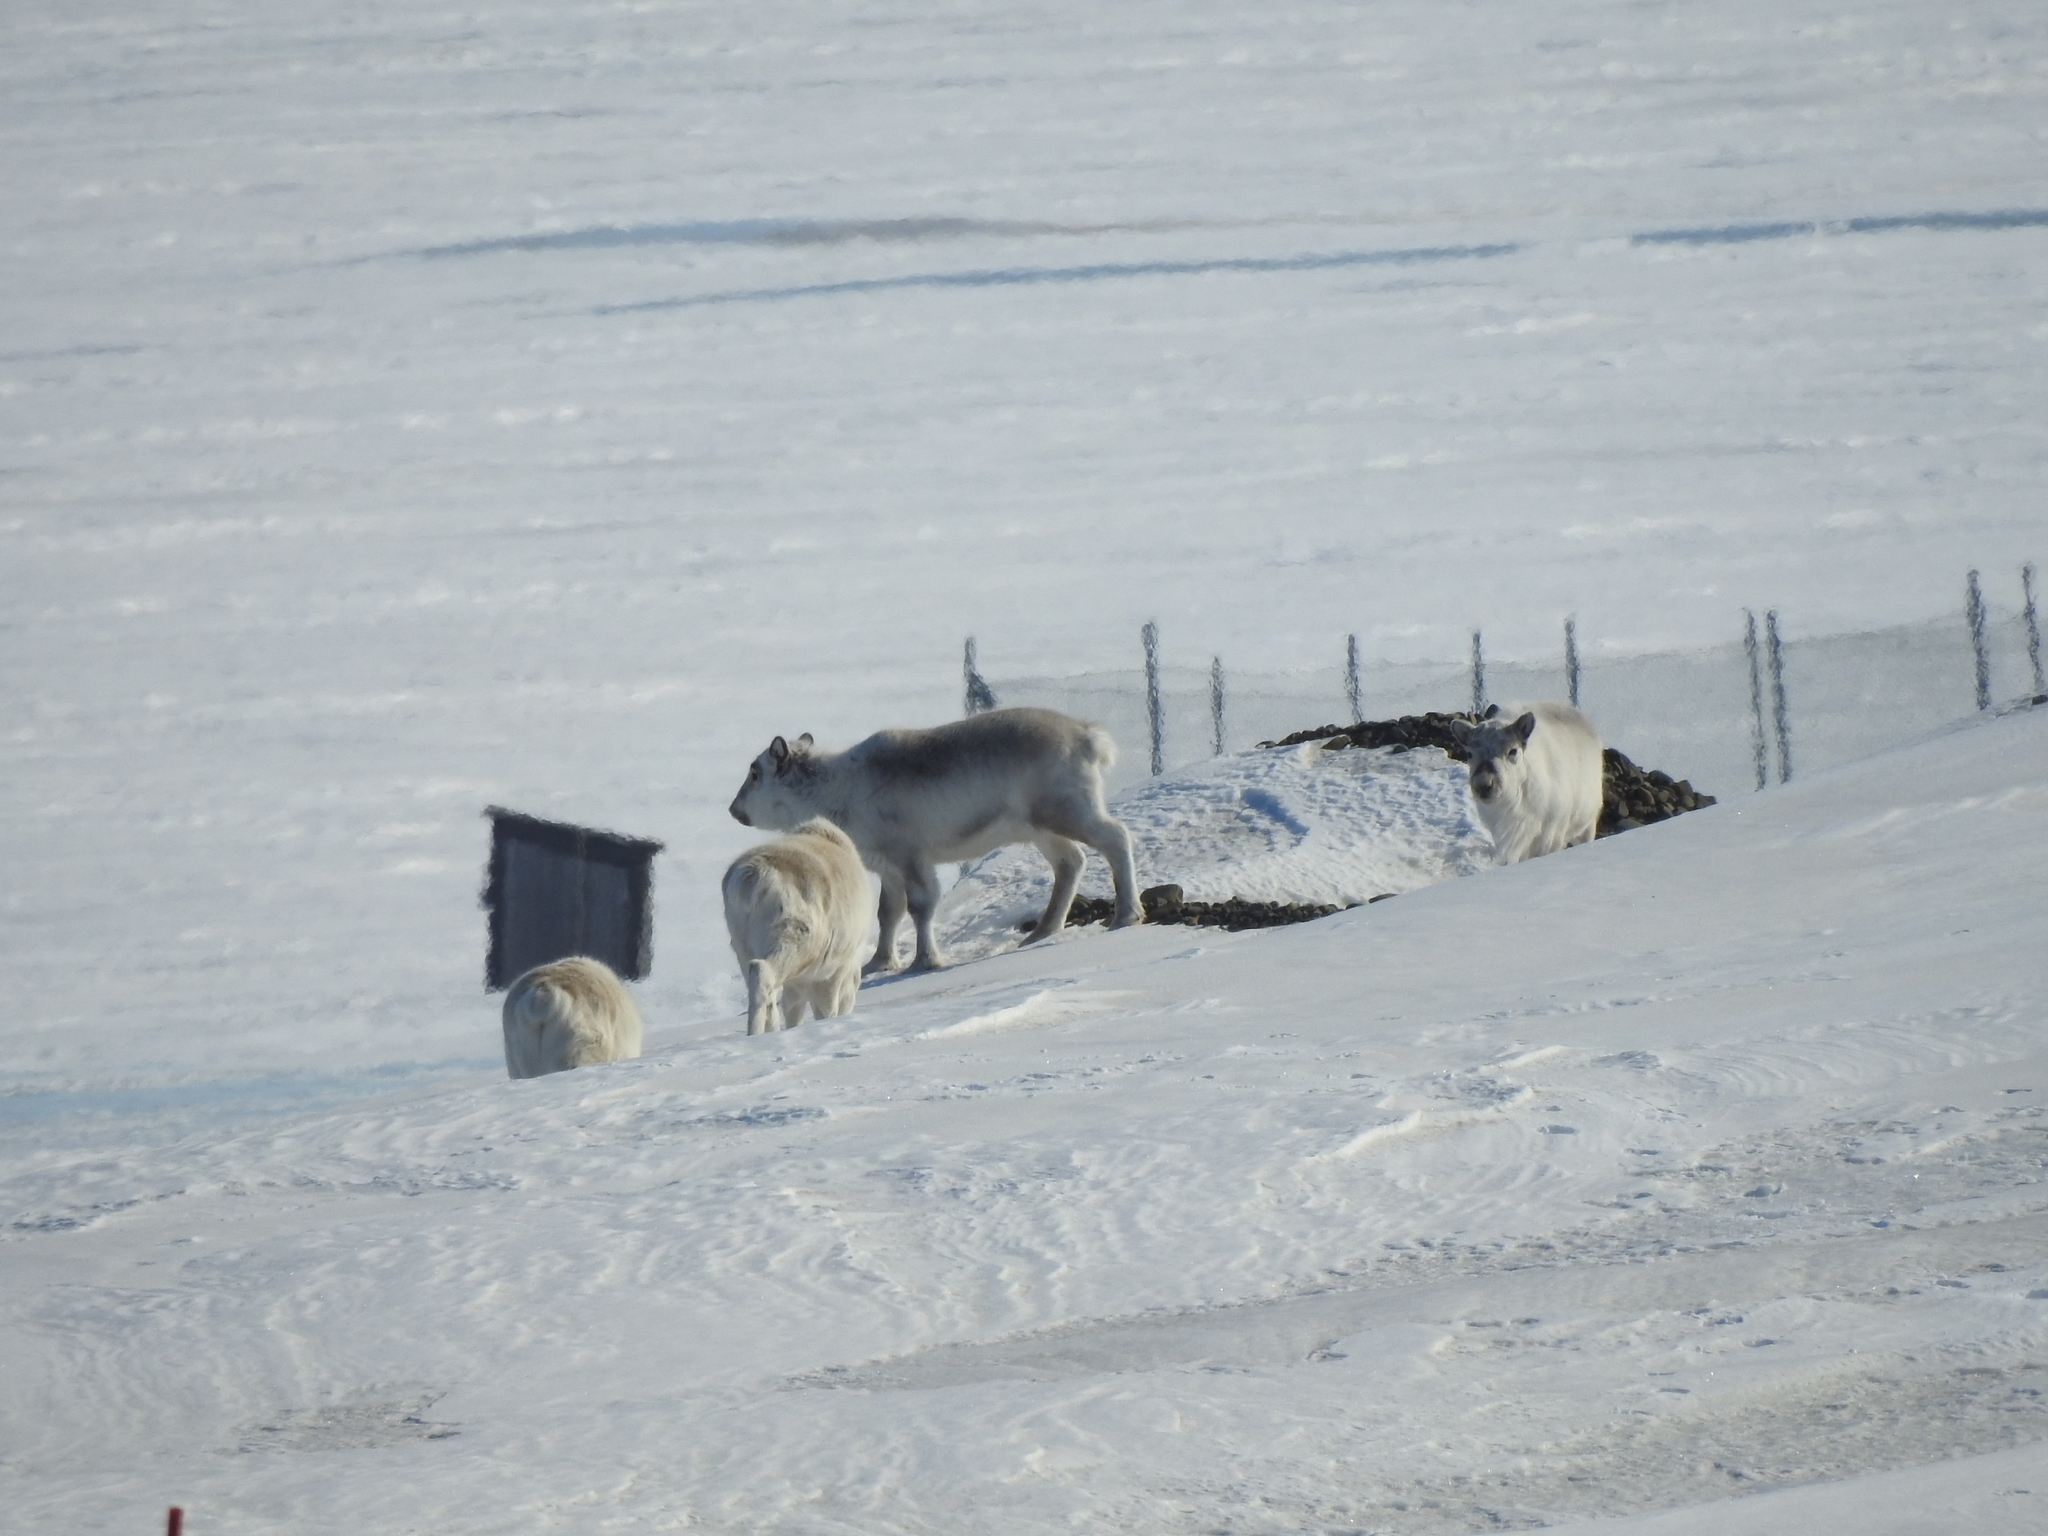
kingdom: Animalia
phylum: Chordata
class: Mammalia
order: Artiodactyla
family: Cervidae
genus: Rangifer
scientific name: Rangifer tarandus
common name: Reindeer
